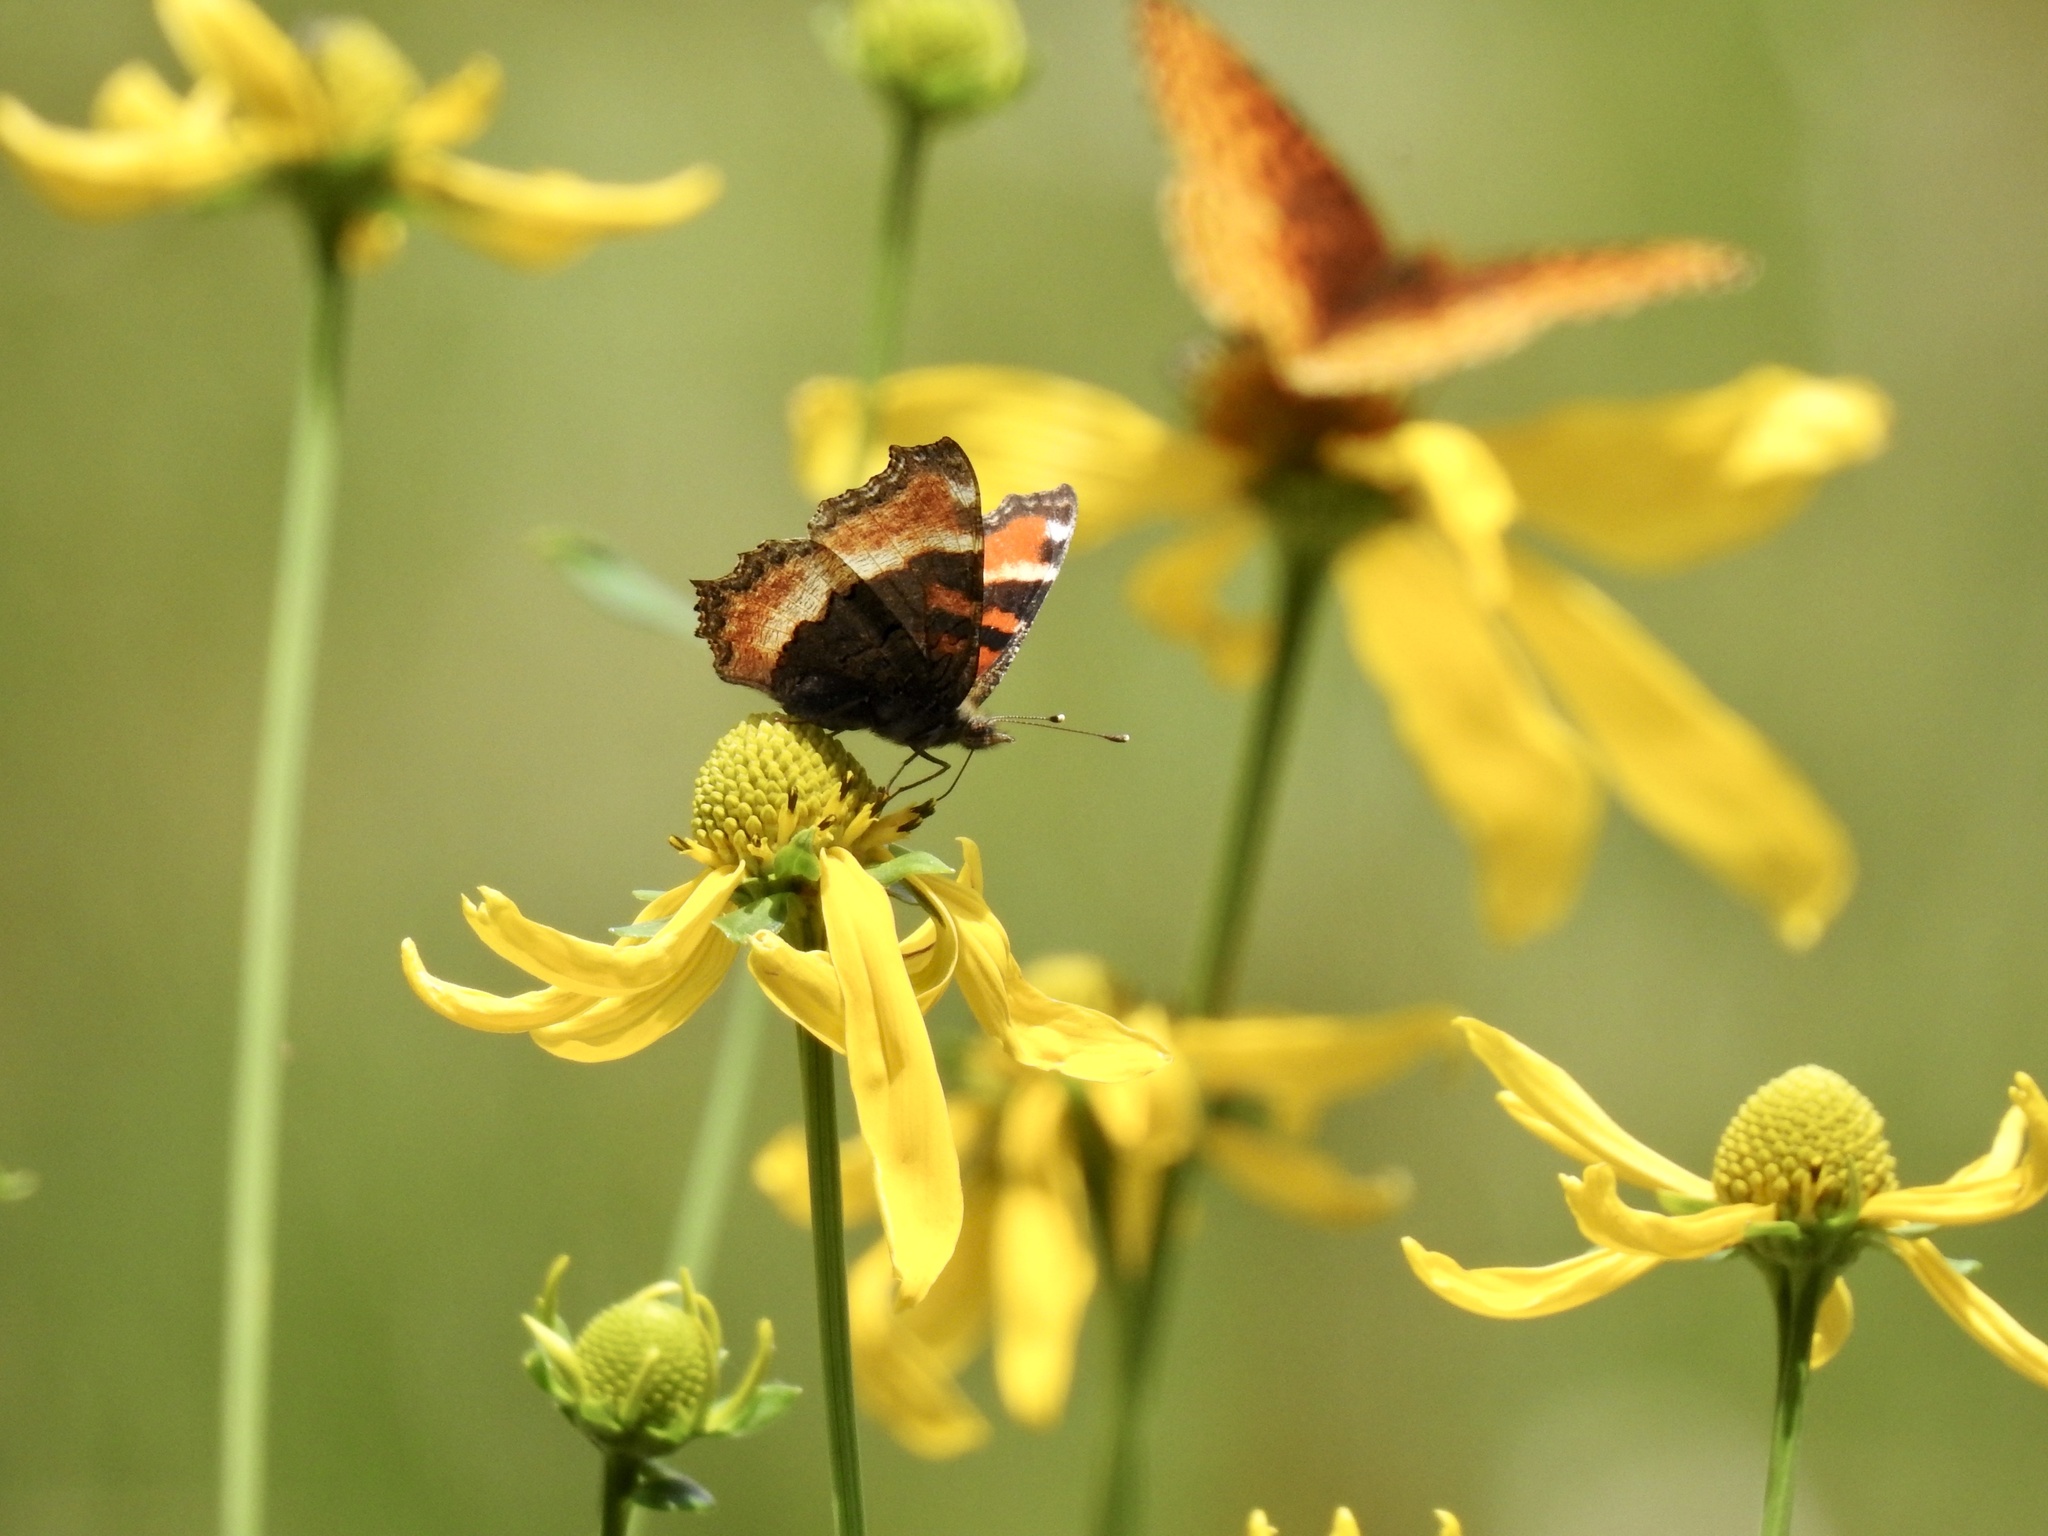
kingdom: Animalia
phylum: Arthropoda
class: Insecta
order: Lepidoptera
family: Nymphalidae
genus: Aglais
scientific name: Aglais milberti
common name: Milbert's tortoiseshell
